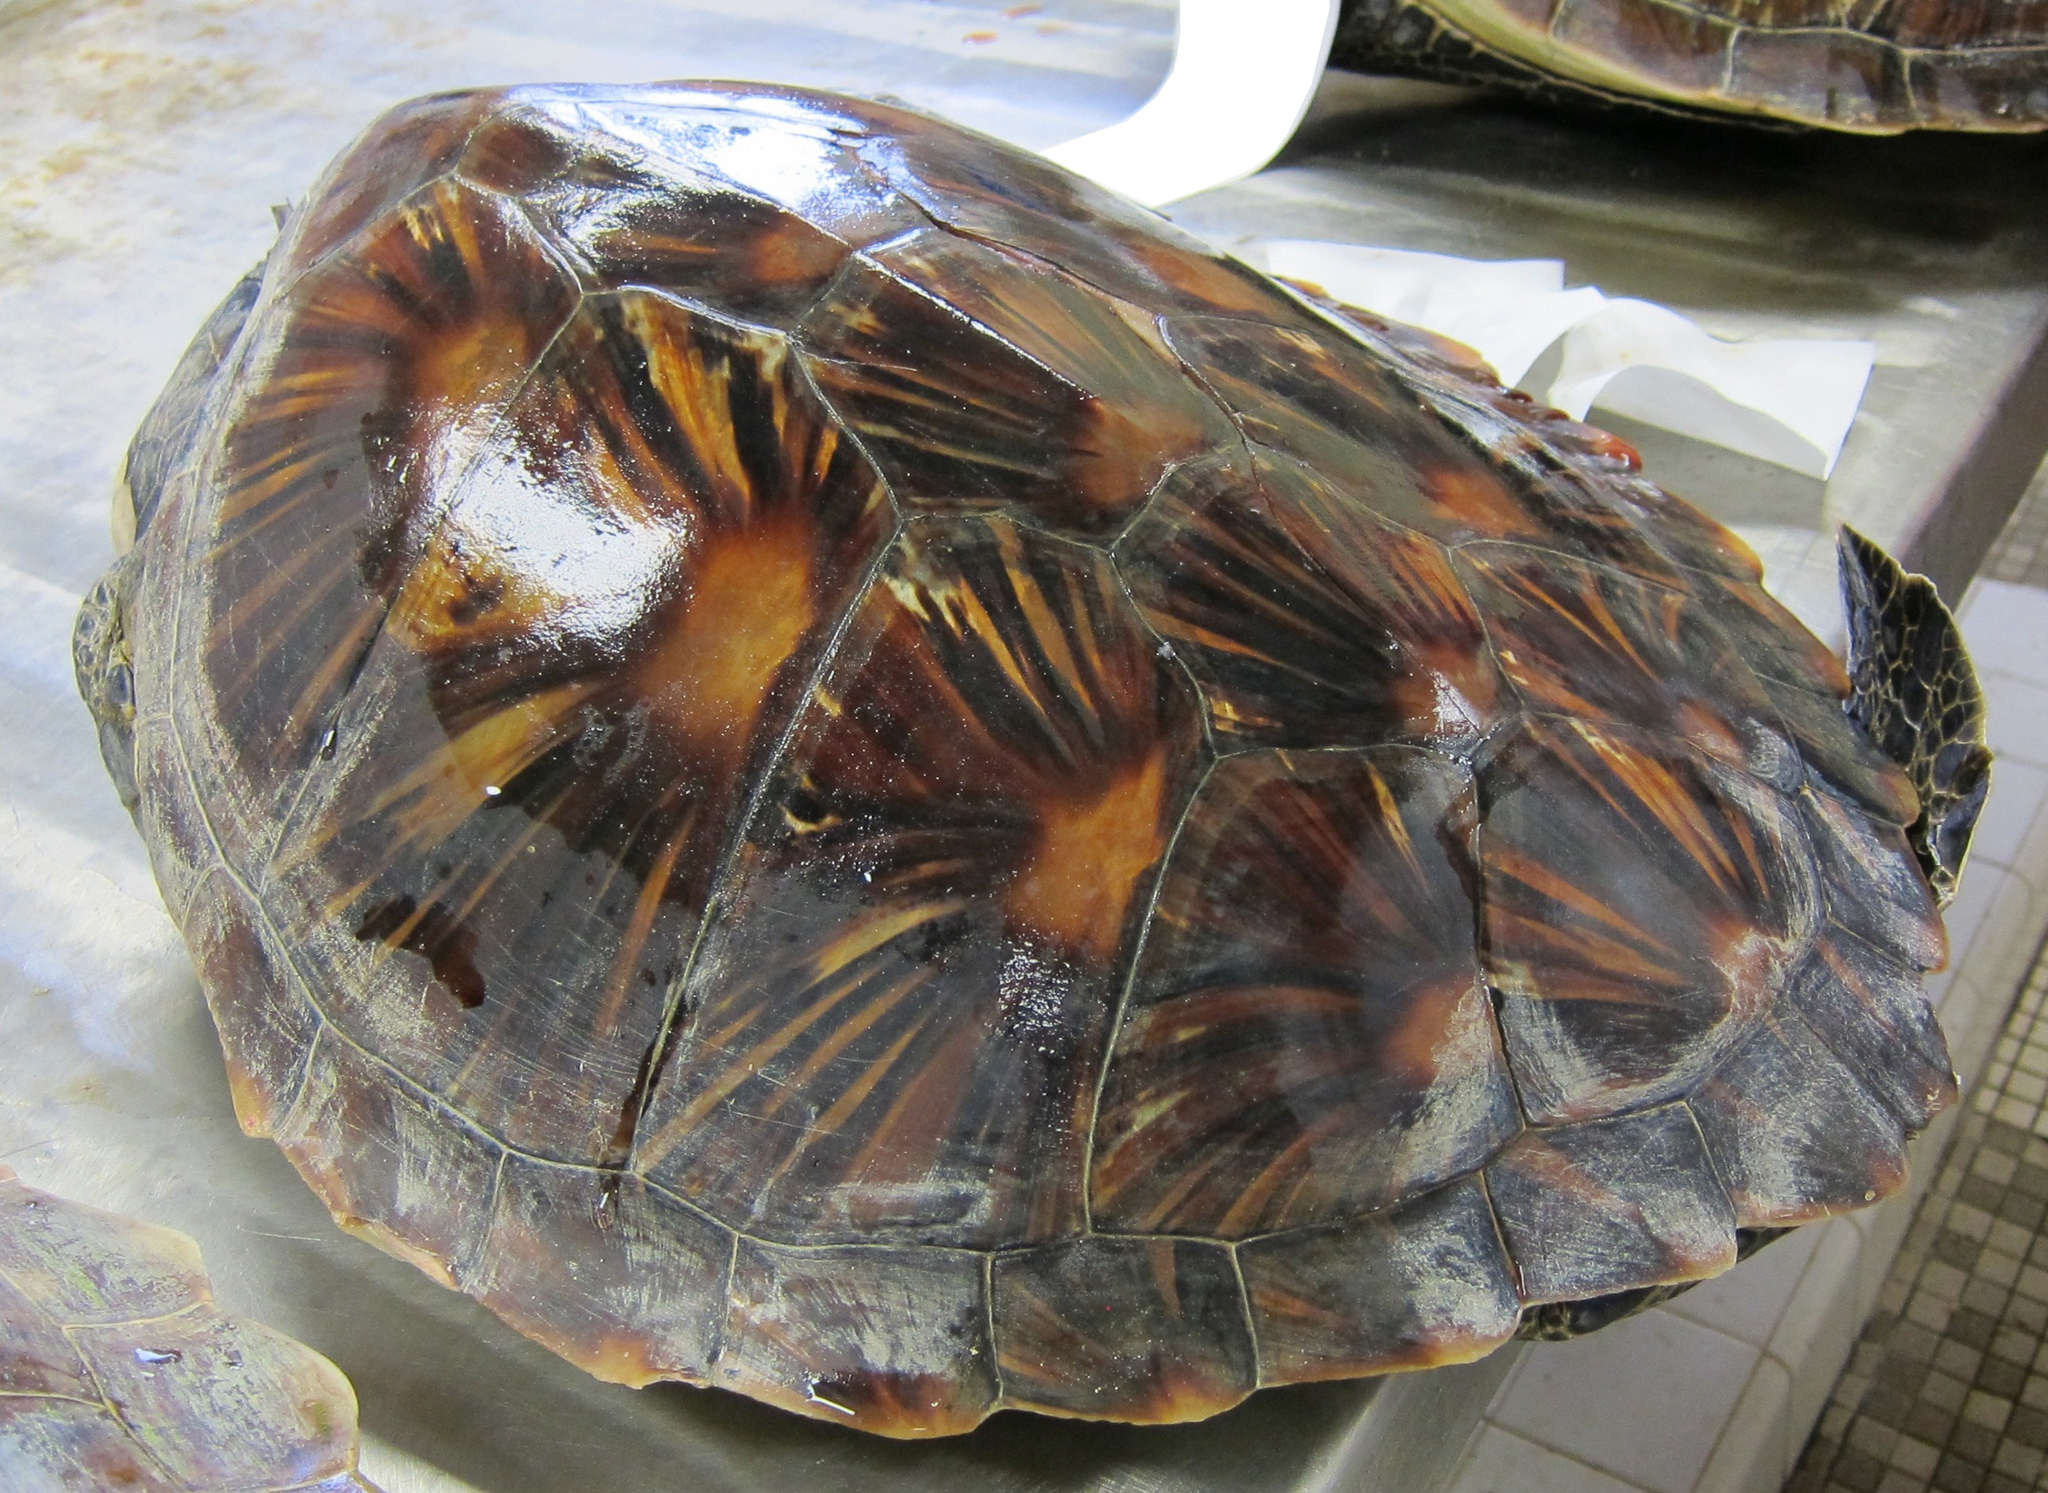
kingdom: Animalia
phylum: Chordata
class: Testudines
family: Cheloniidae
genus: Chelonia
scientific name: Chelonia mydas
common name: Green turtle
